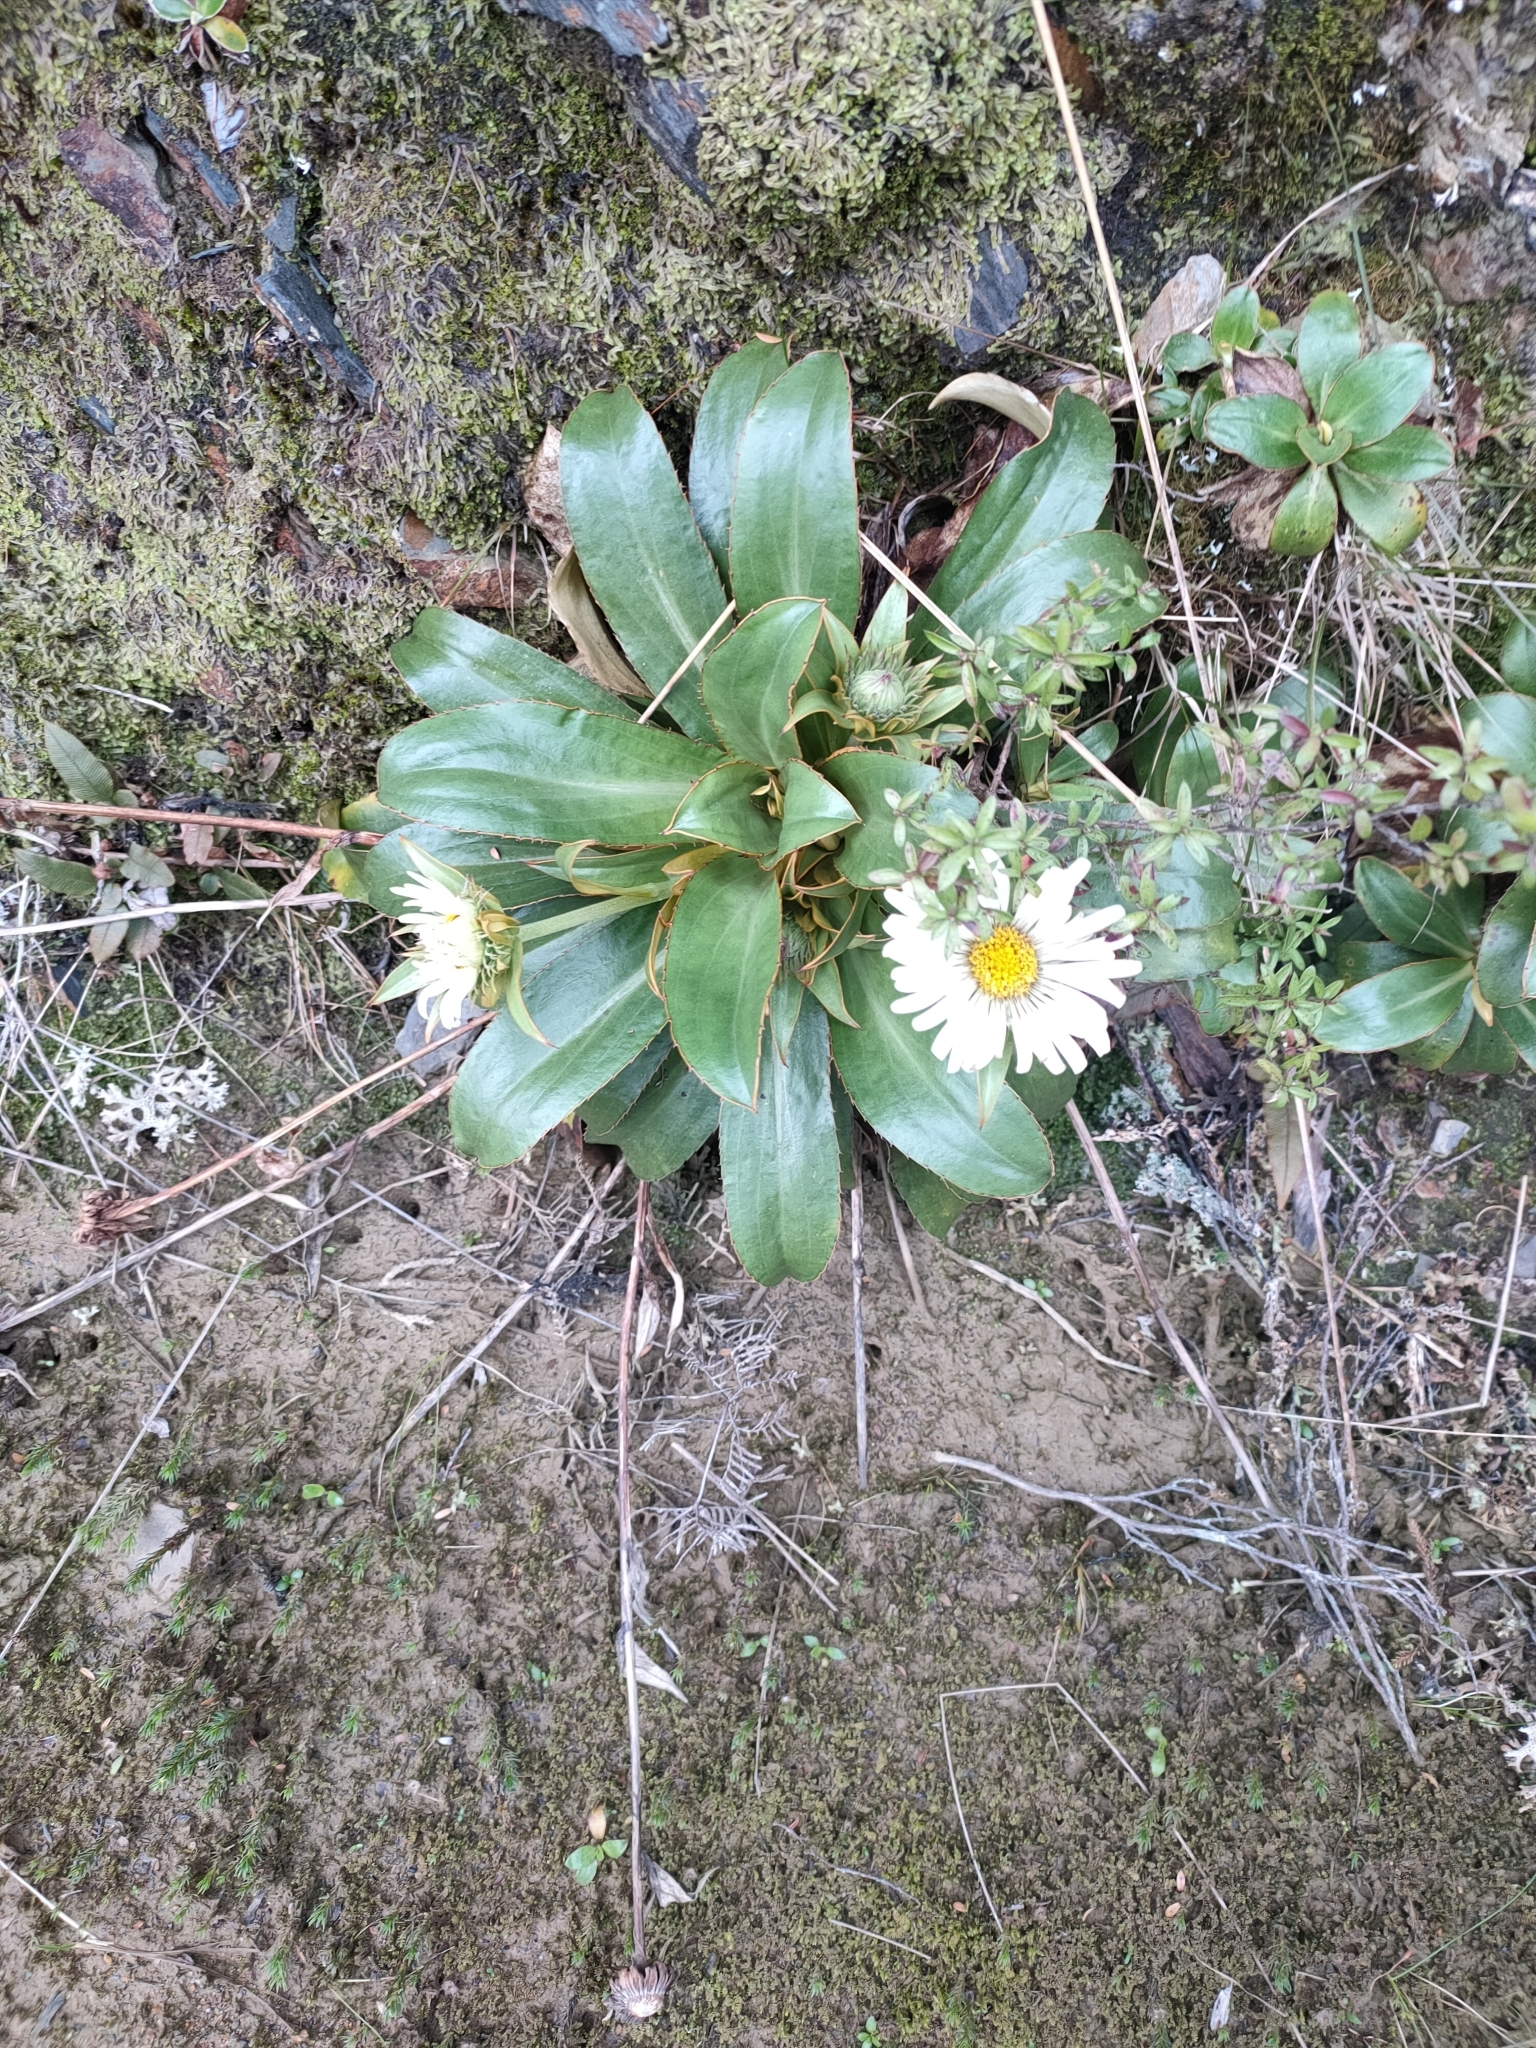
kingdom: Plantae
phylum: Tracheophyta
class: Magnoliopsida
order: Asterales
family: Asteraceae
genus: Celmisia
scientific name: Celmisia dallii
